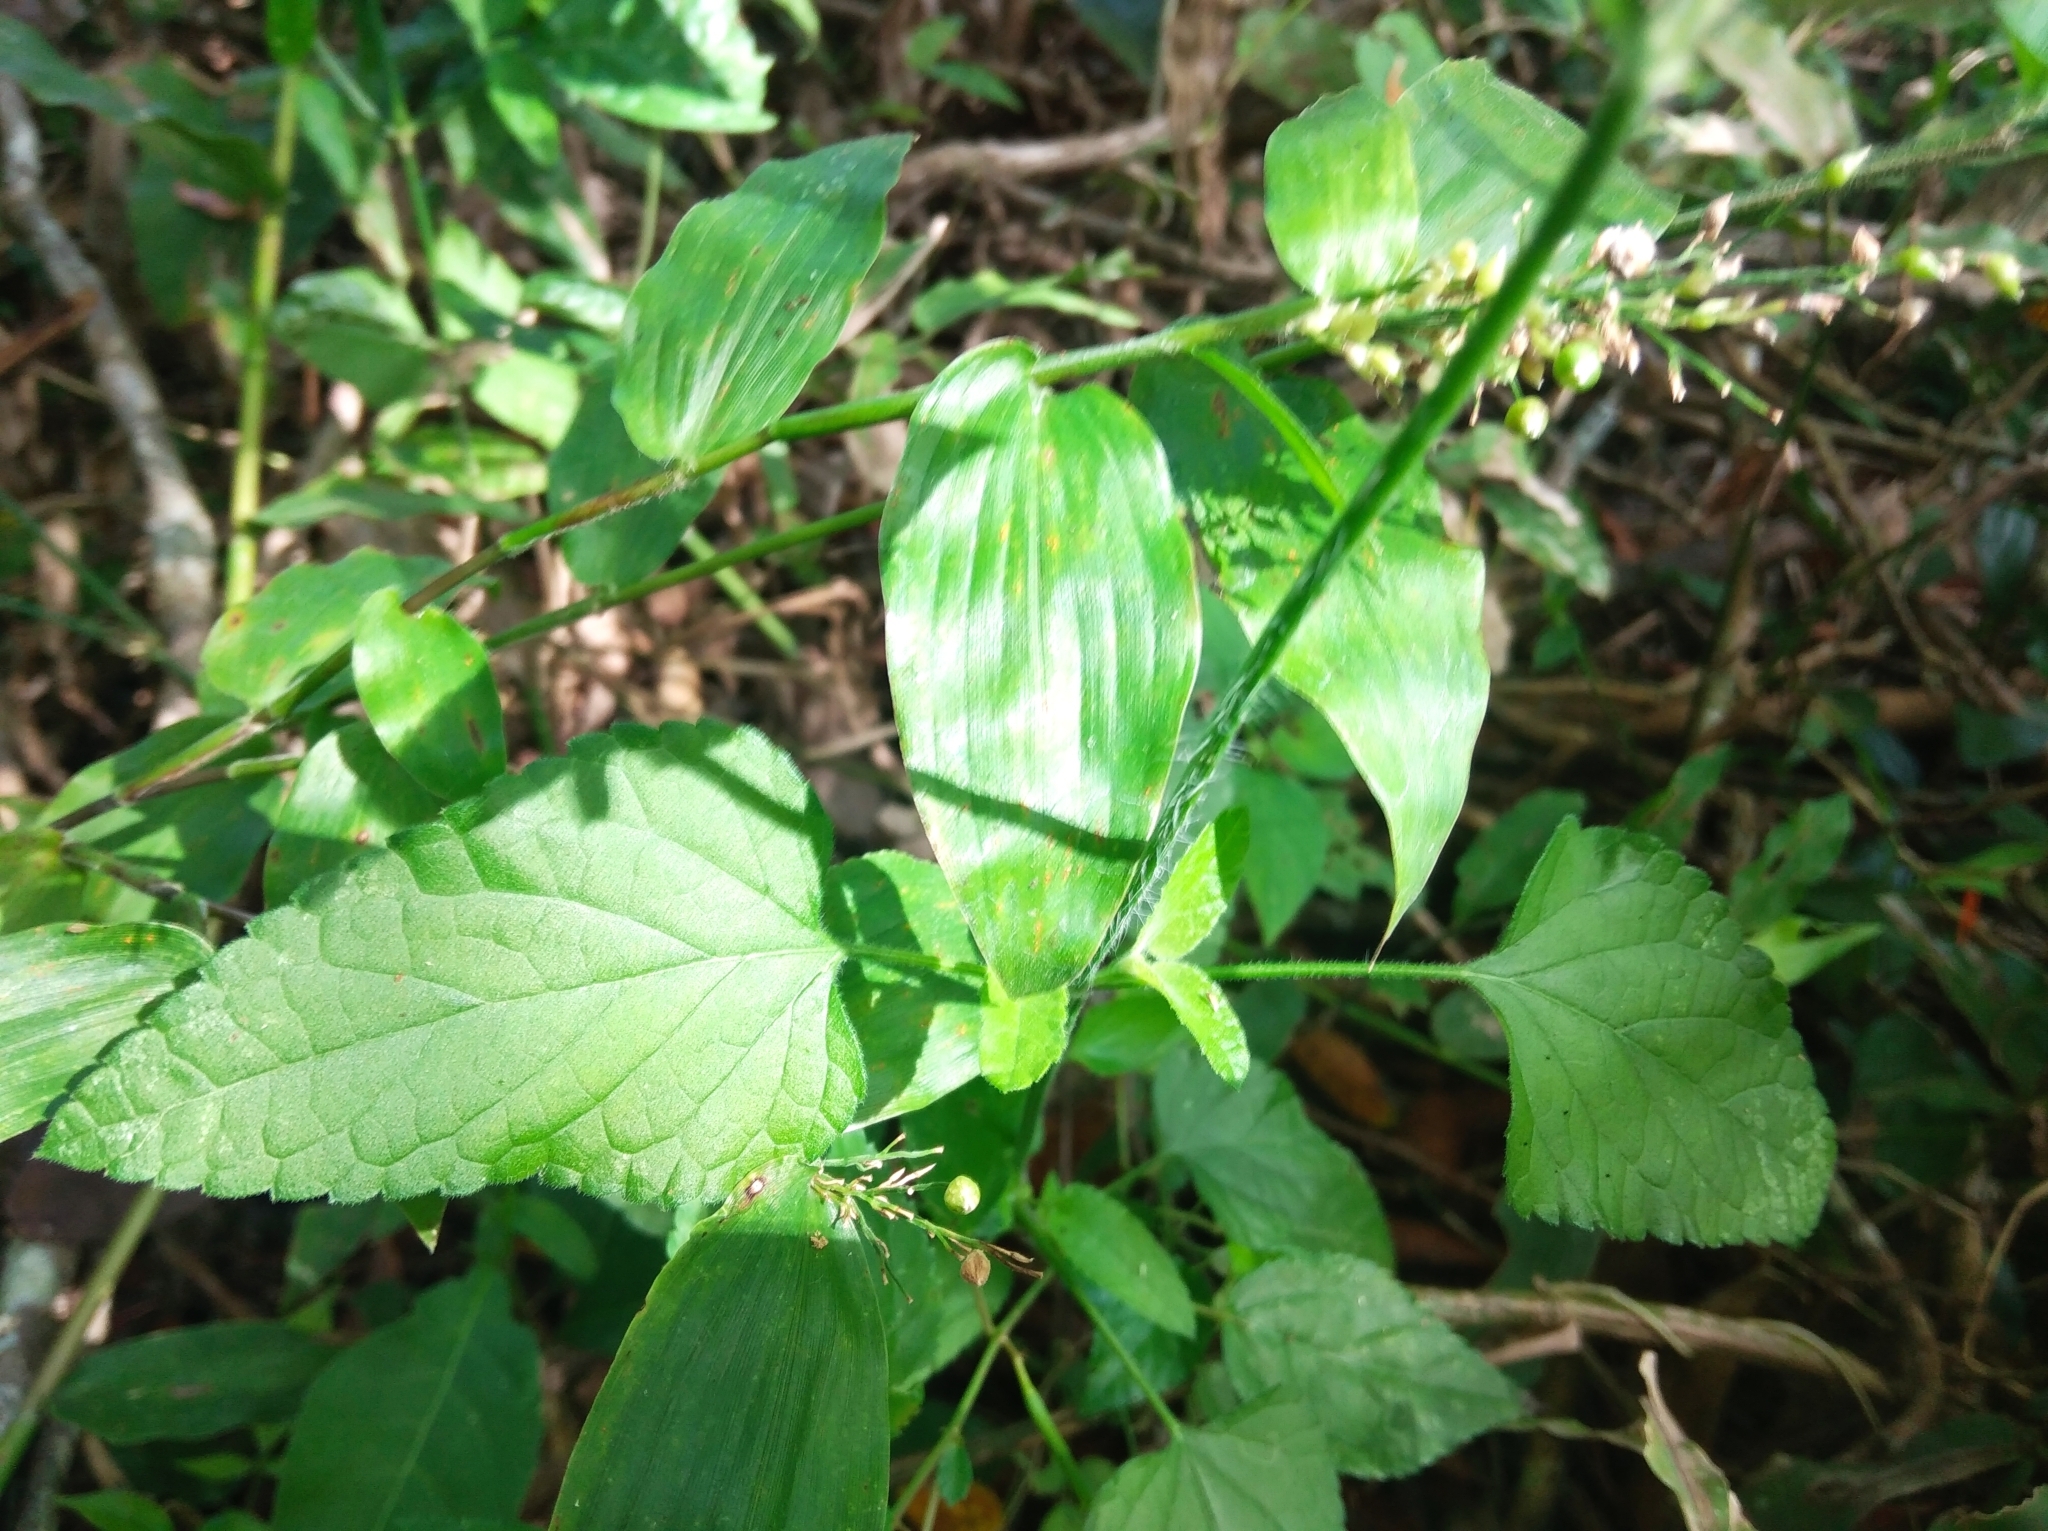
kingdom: Plantae
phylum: Tracheophyta
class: Magnoliopsida
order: Lamiales
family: Lamiaceae
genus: Salvia
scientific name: Salvia coccinea
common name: Blood sage
